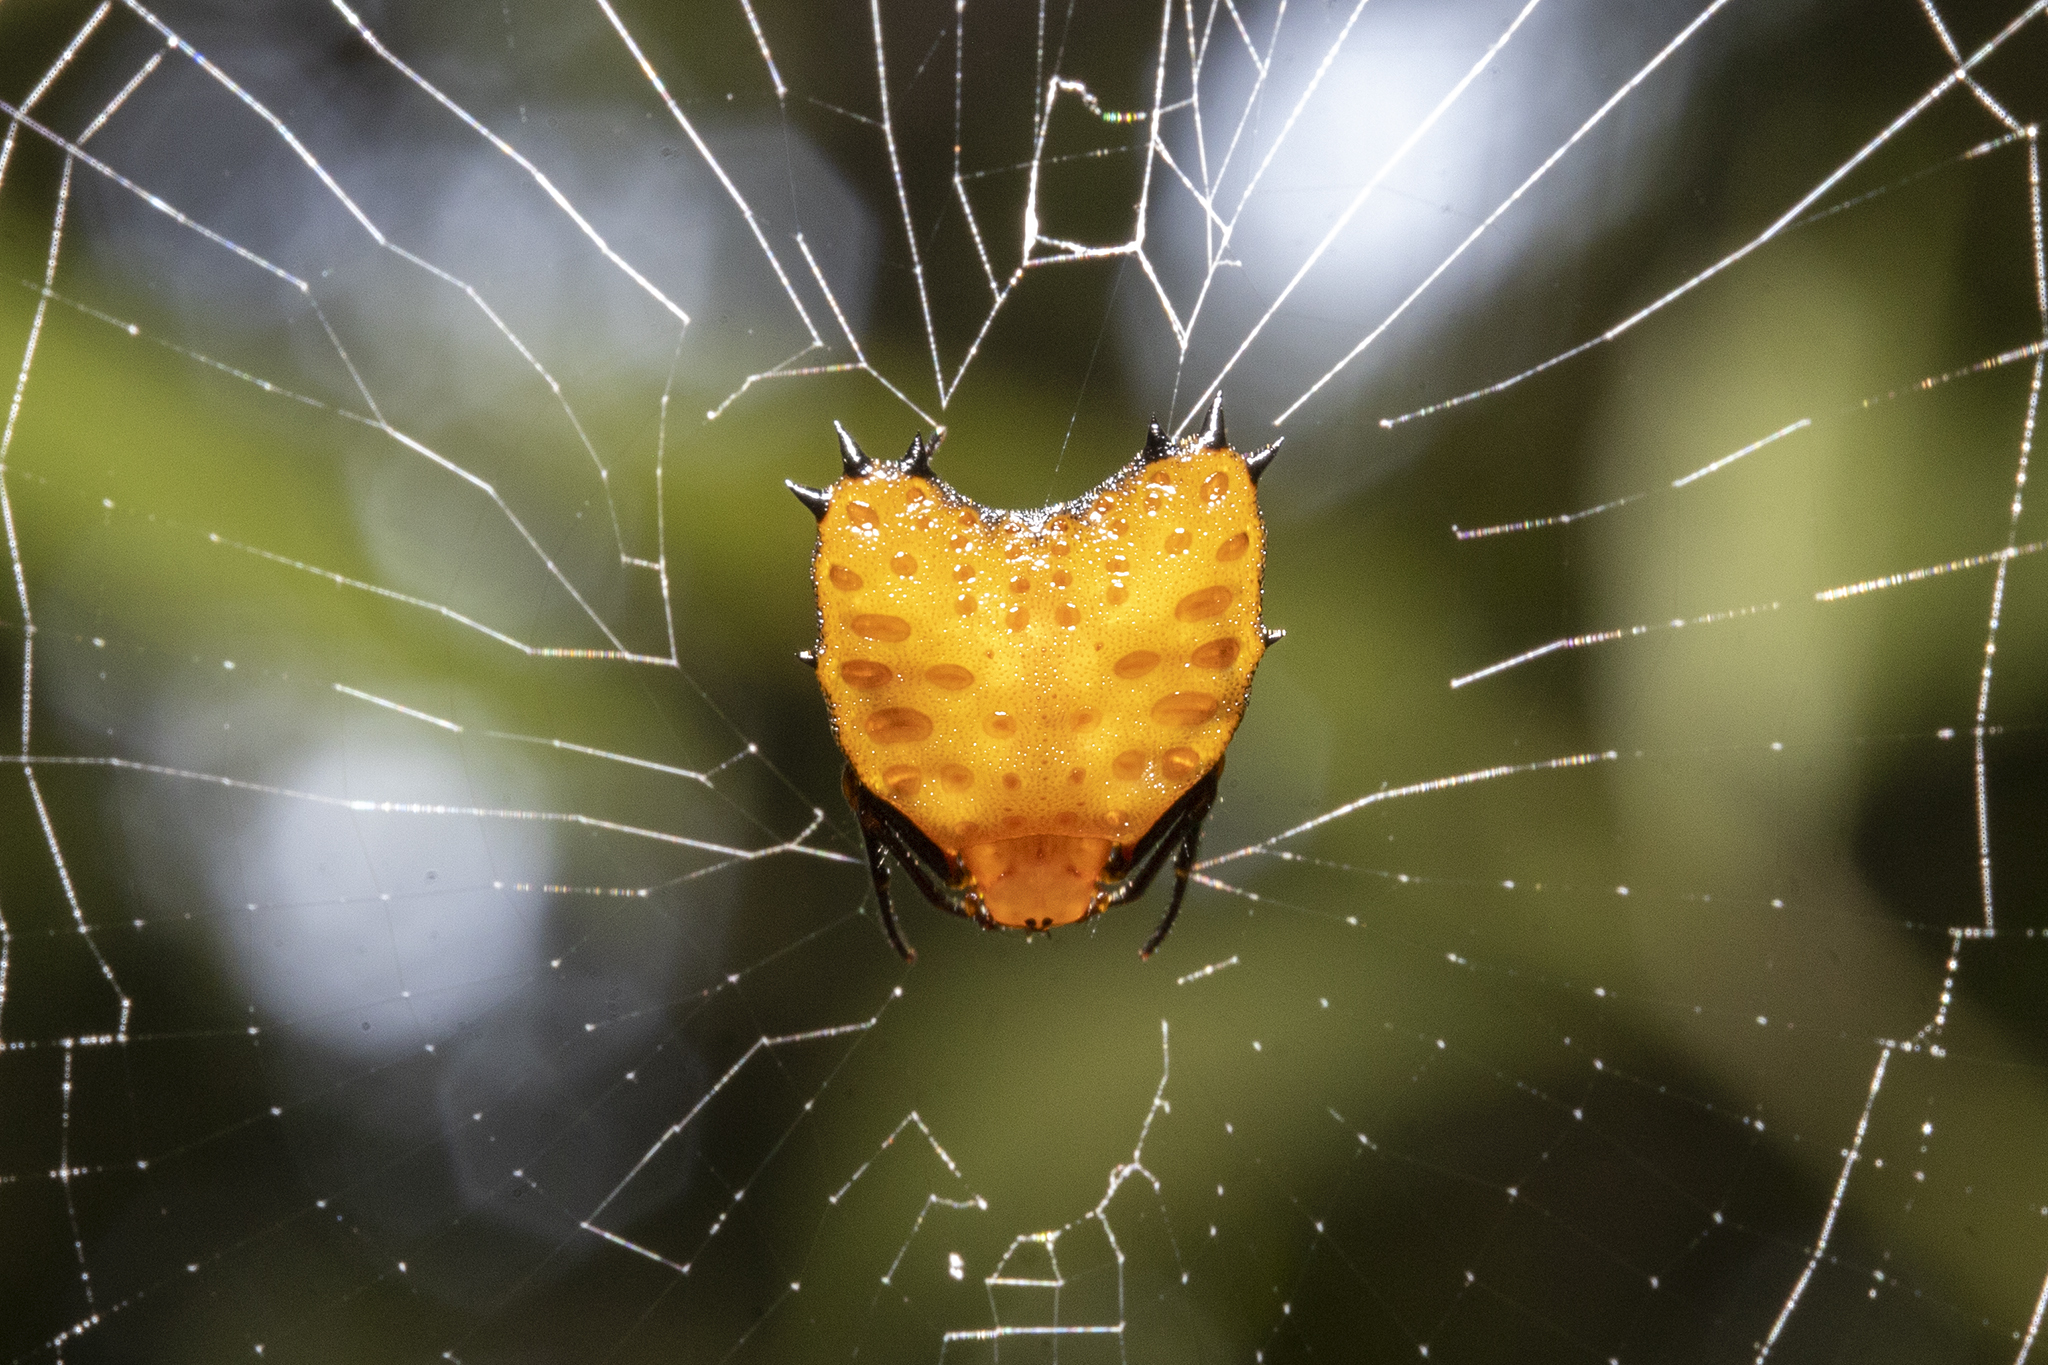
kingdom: Animalia
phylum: Arthropoda
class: Arachnida
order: Araneae
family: Araneidae
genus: Micrathena
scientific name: Micrathena clypeata
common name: Orb weavers
